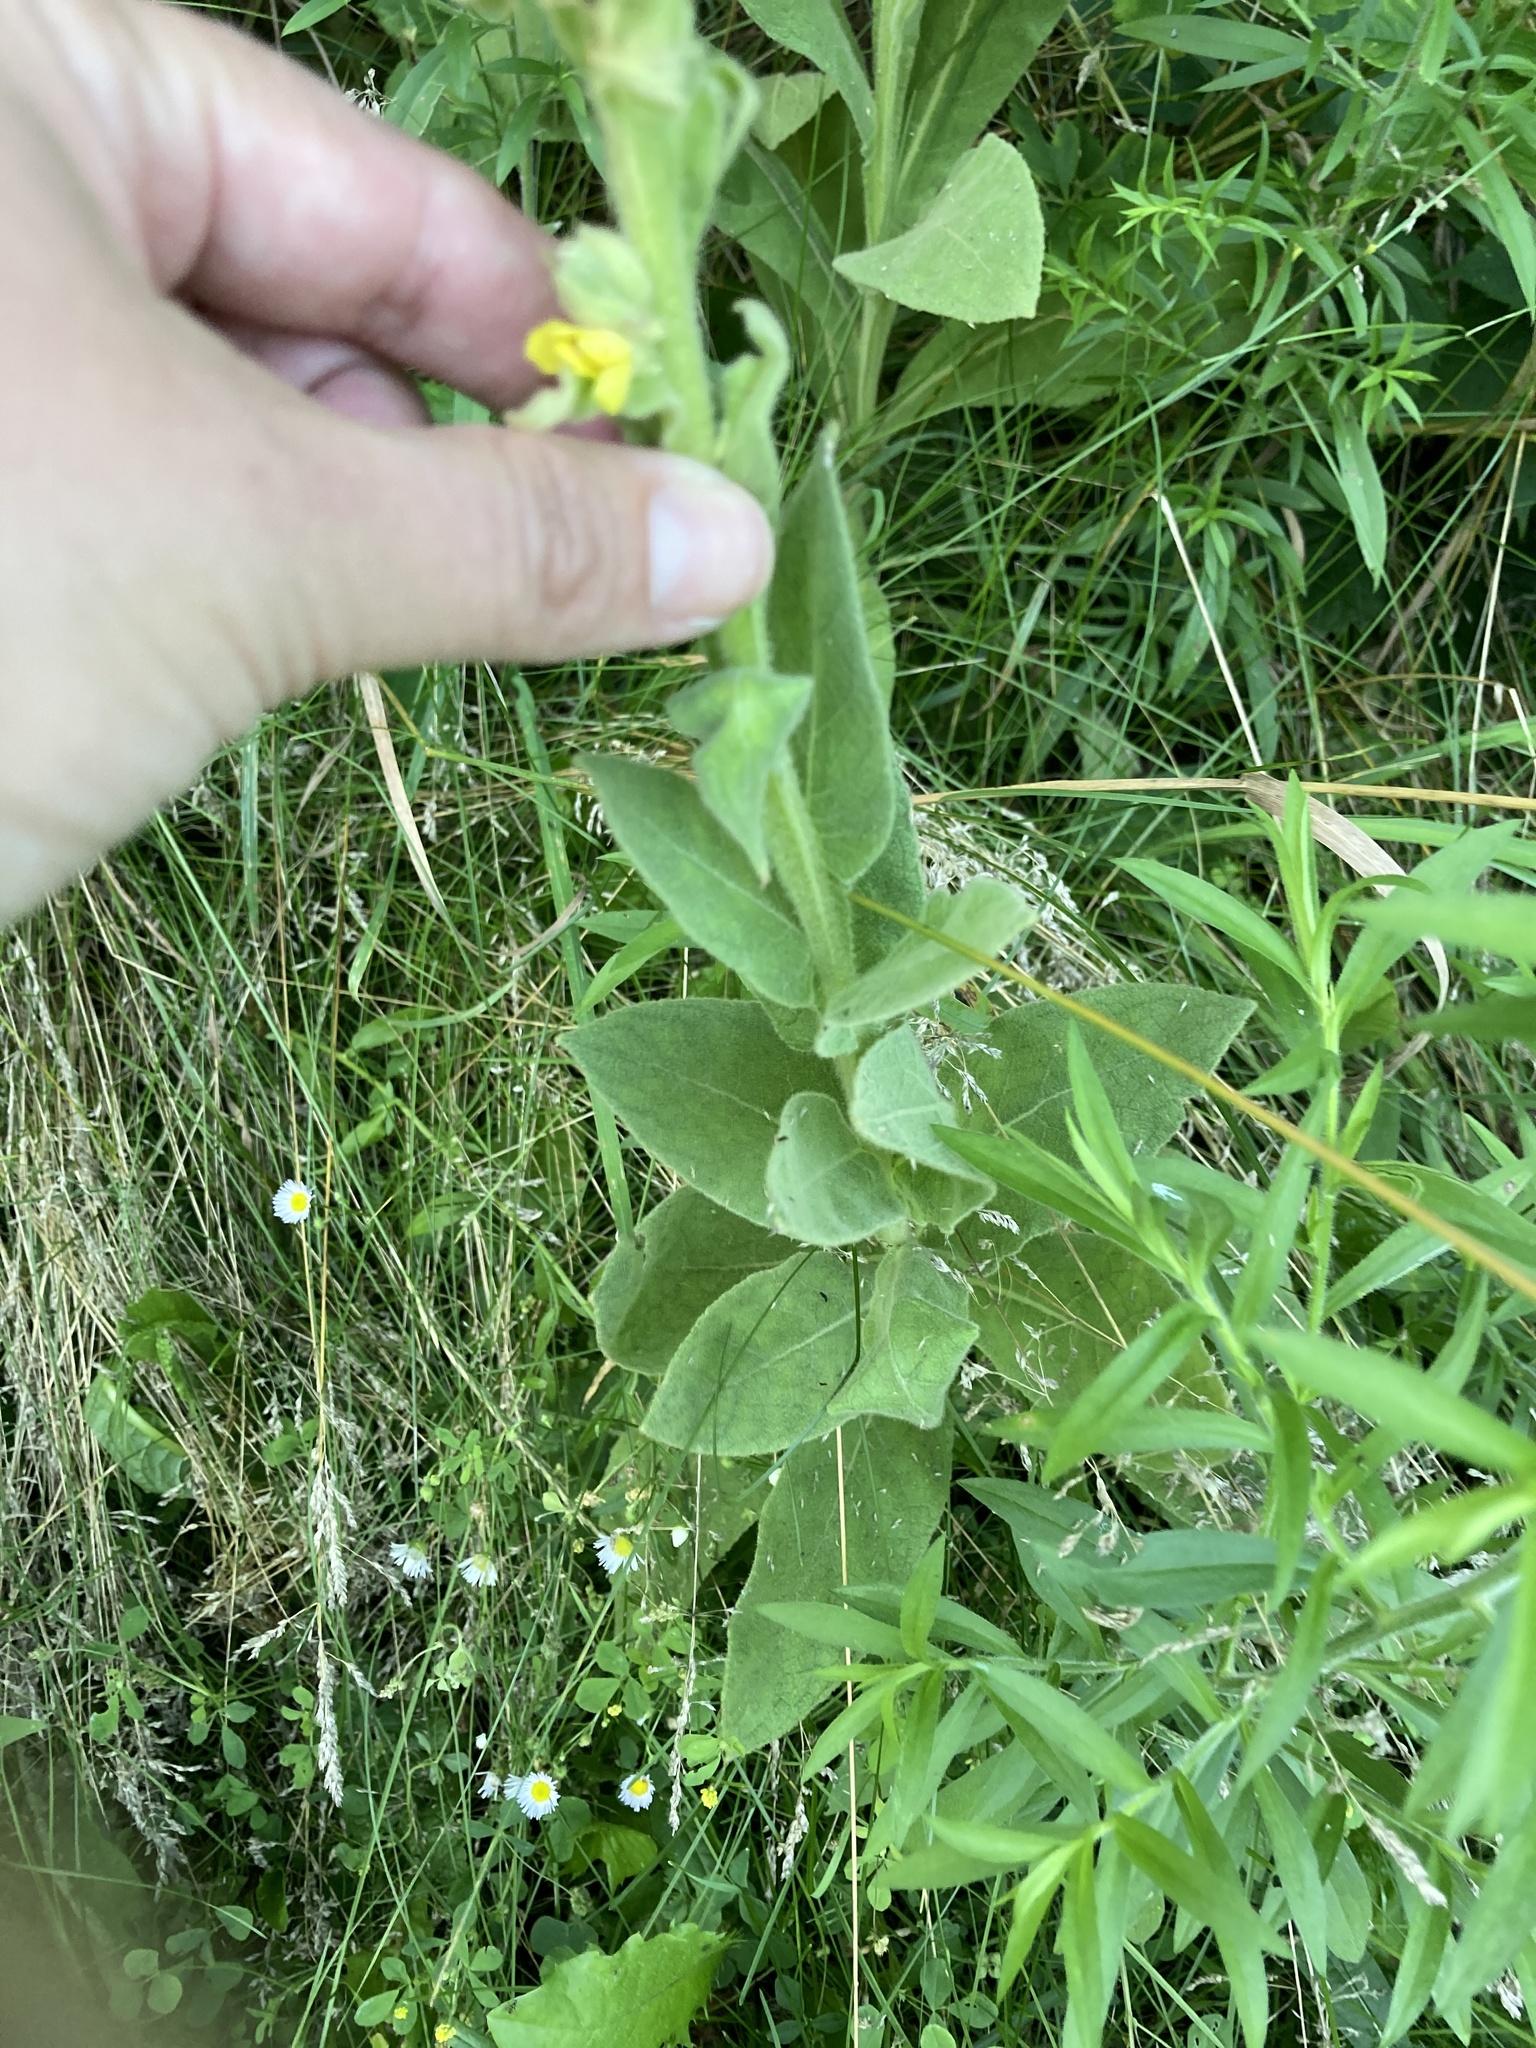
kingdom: Plantae
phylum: Tracheophyta
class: Magnoliopsida
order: Lamiales
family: Scrophulariaceae
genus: Verbascum
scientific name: Verbascum thapsus
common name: Common mullein
